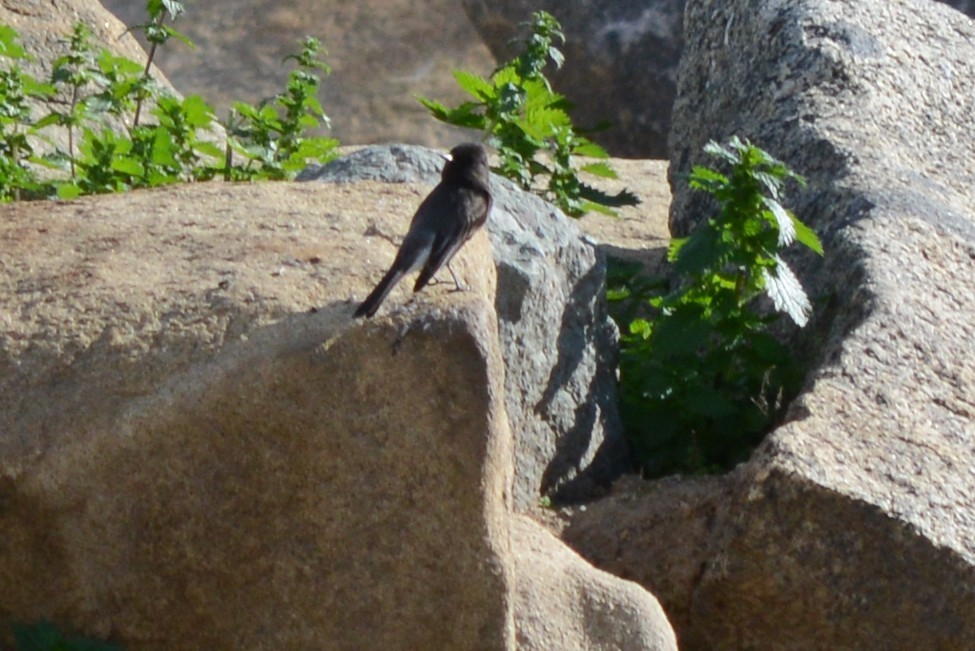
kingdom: Animalia
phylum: Chordata
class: Aves
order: Passeriformes
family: Tyrannidae
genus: Sayornis
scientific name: Sayornis nigricans
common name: Black phoebe
